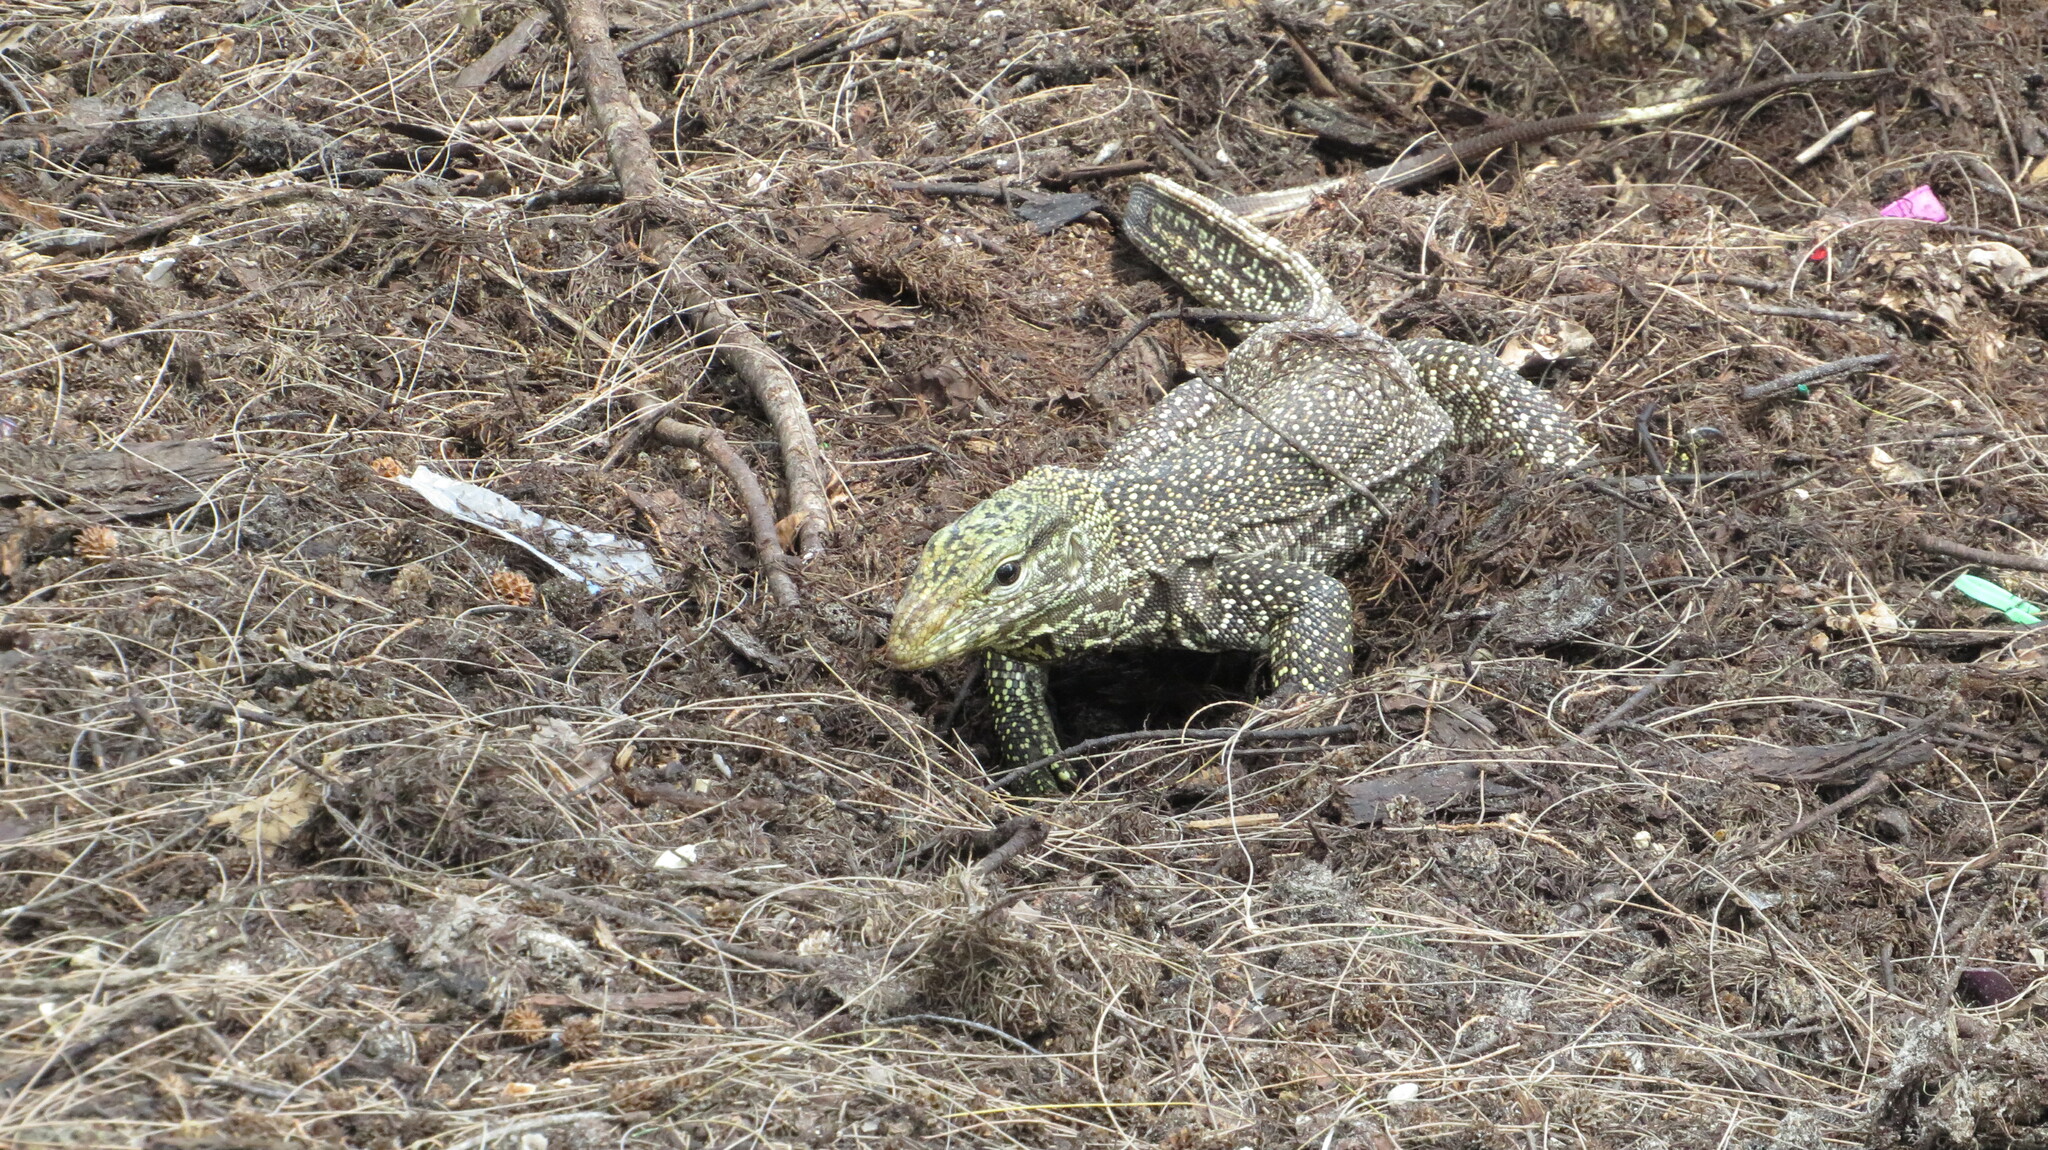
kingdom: Animalia
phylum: Chordata
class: Squamata
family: Varanidae
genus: Varanus
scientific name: Varanus nebulosus
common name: Clouded monitor
